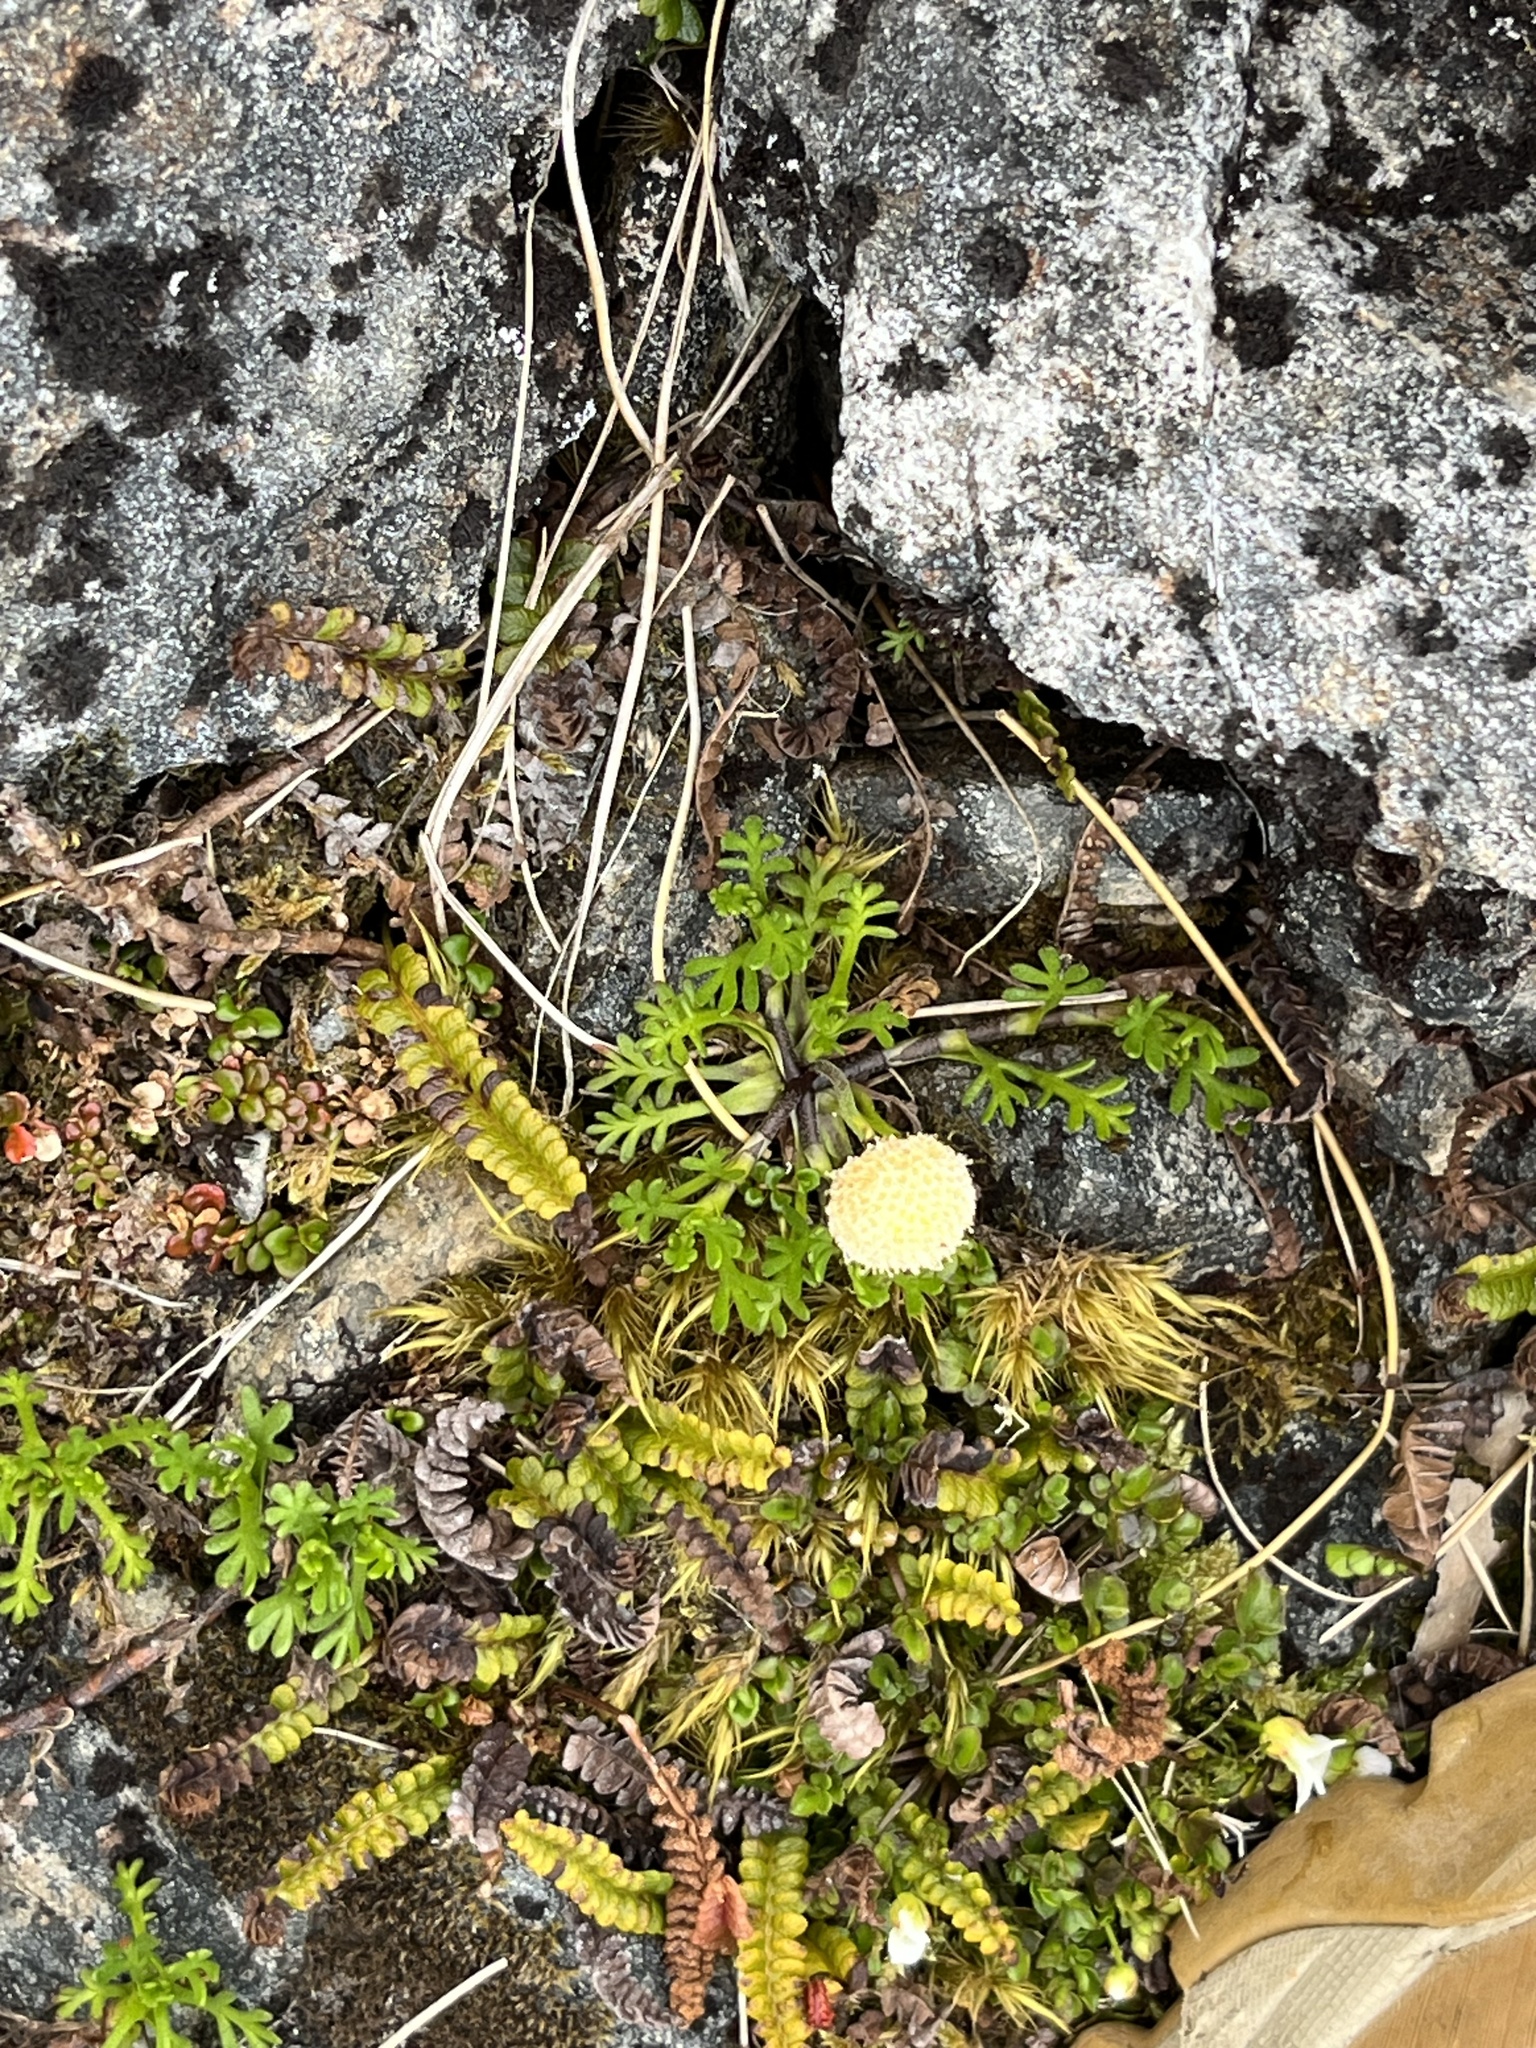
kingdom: Plantae
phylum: Tracheophyta
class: Magnoliopsida
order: Asterales
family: Asteraceae
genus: Leptinella
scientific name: Leptinella pyrethrifolia
